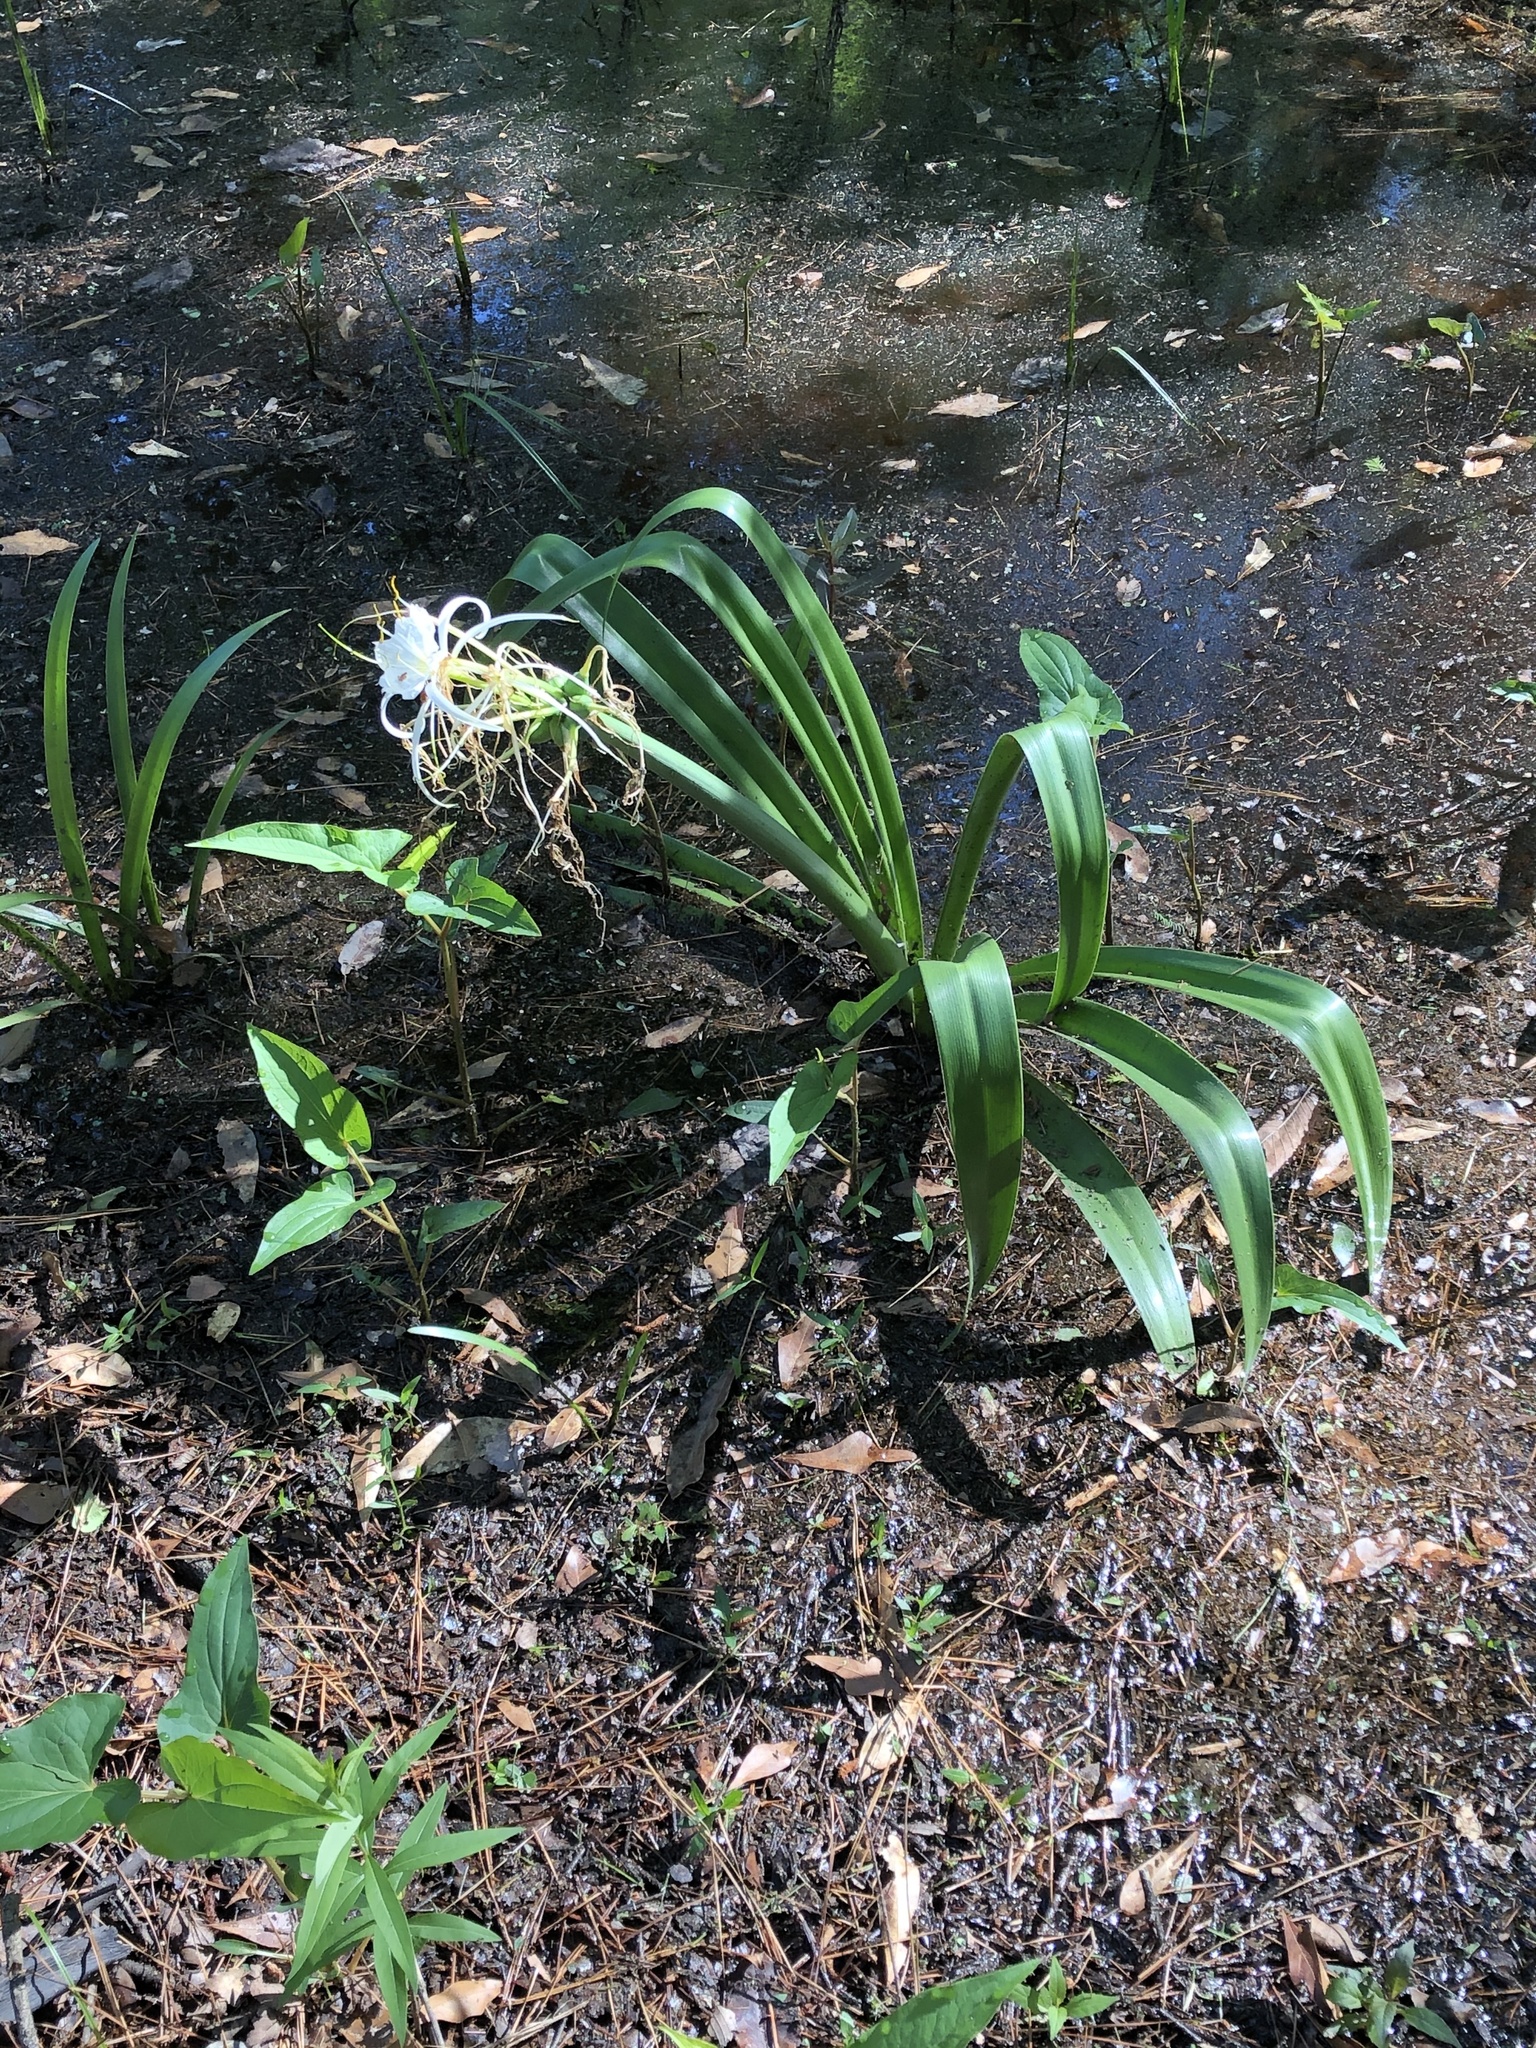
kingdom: Plantae
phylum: Tracheophyta
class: Liliopsida
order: Asparagales
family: Amaryllidaceae
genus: Hymenocallis
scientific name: Hymenocallis occidentalis
